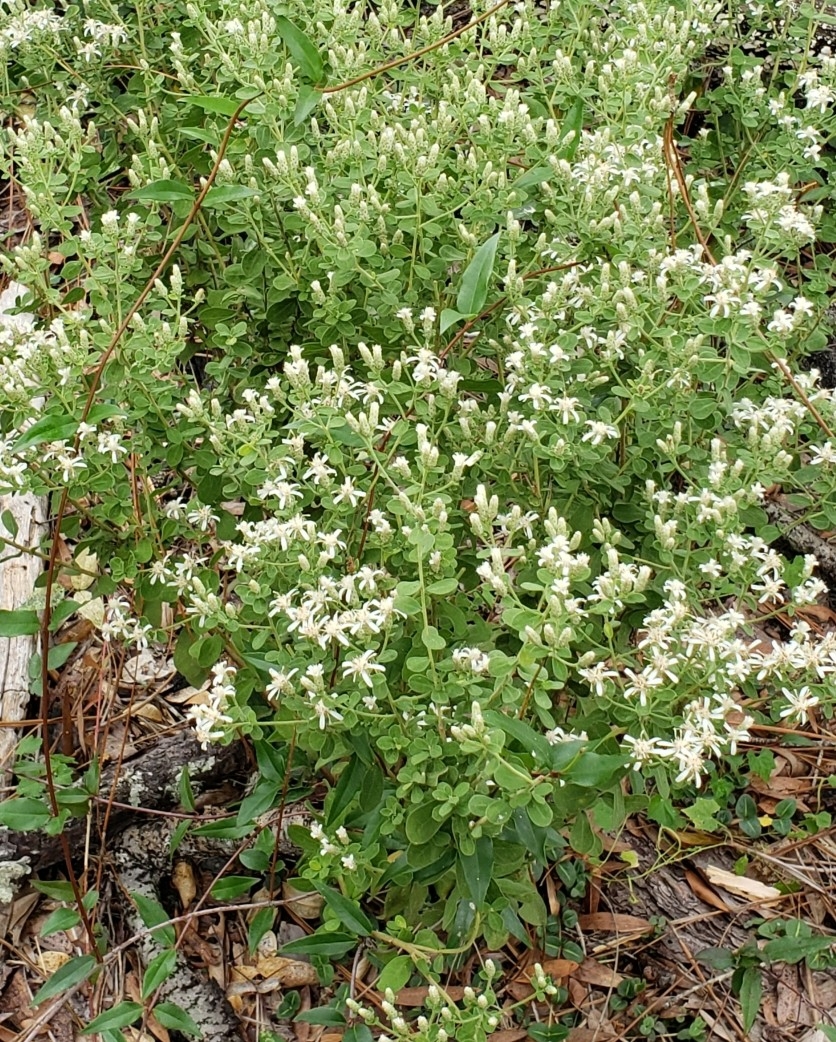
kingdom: Plantae
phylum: Tracheophyta
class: Magnoliopsida
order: Asterales
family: Asteraceae
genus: Sericocarpus
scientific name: Sericocarpus tortifolius
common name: Dixie aster
